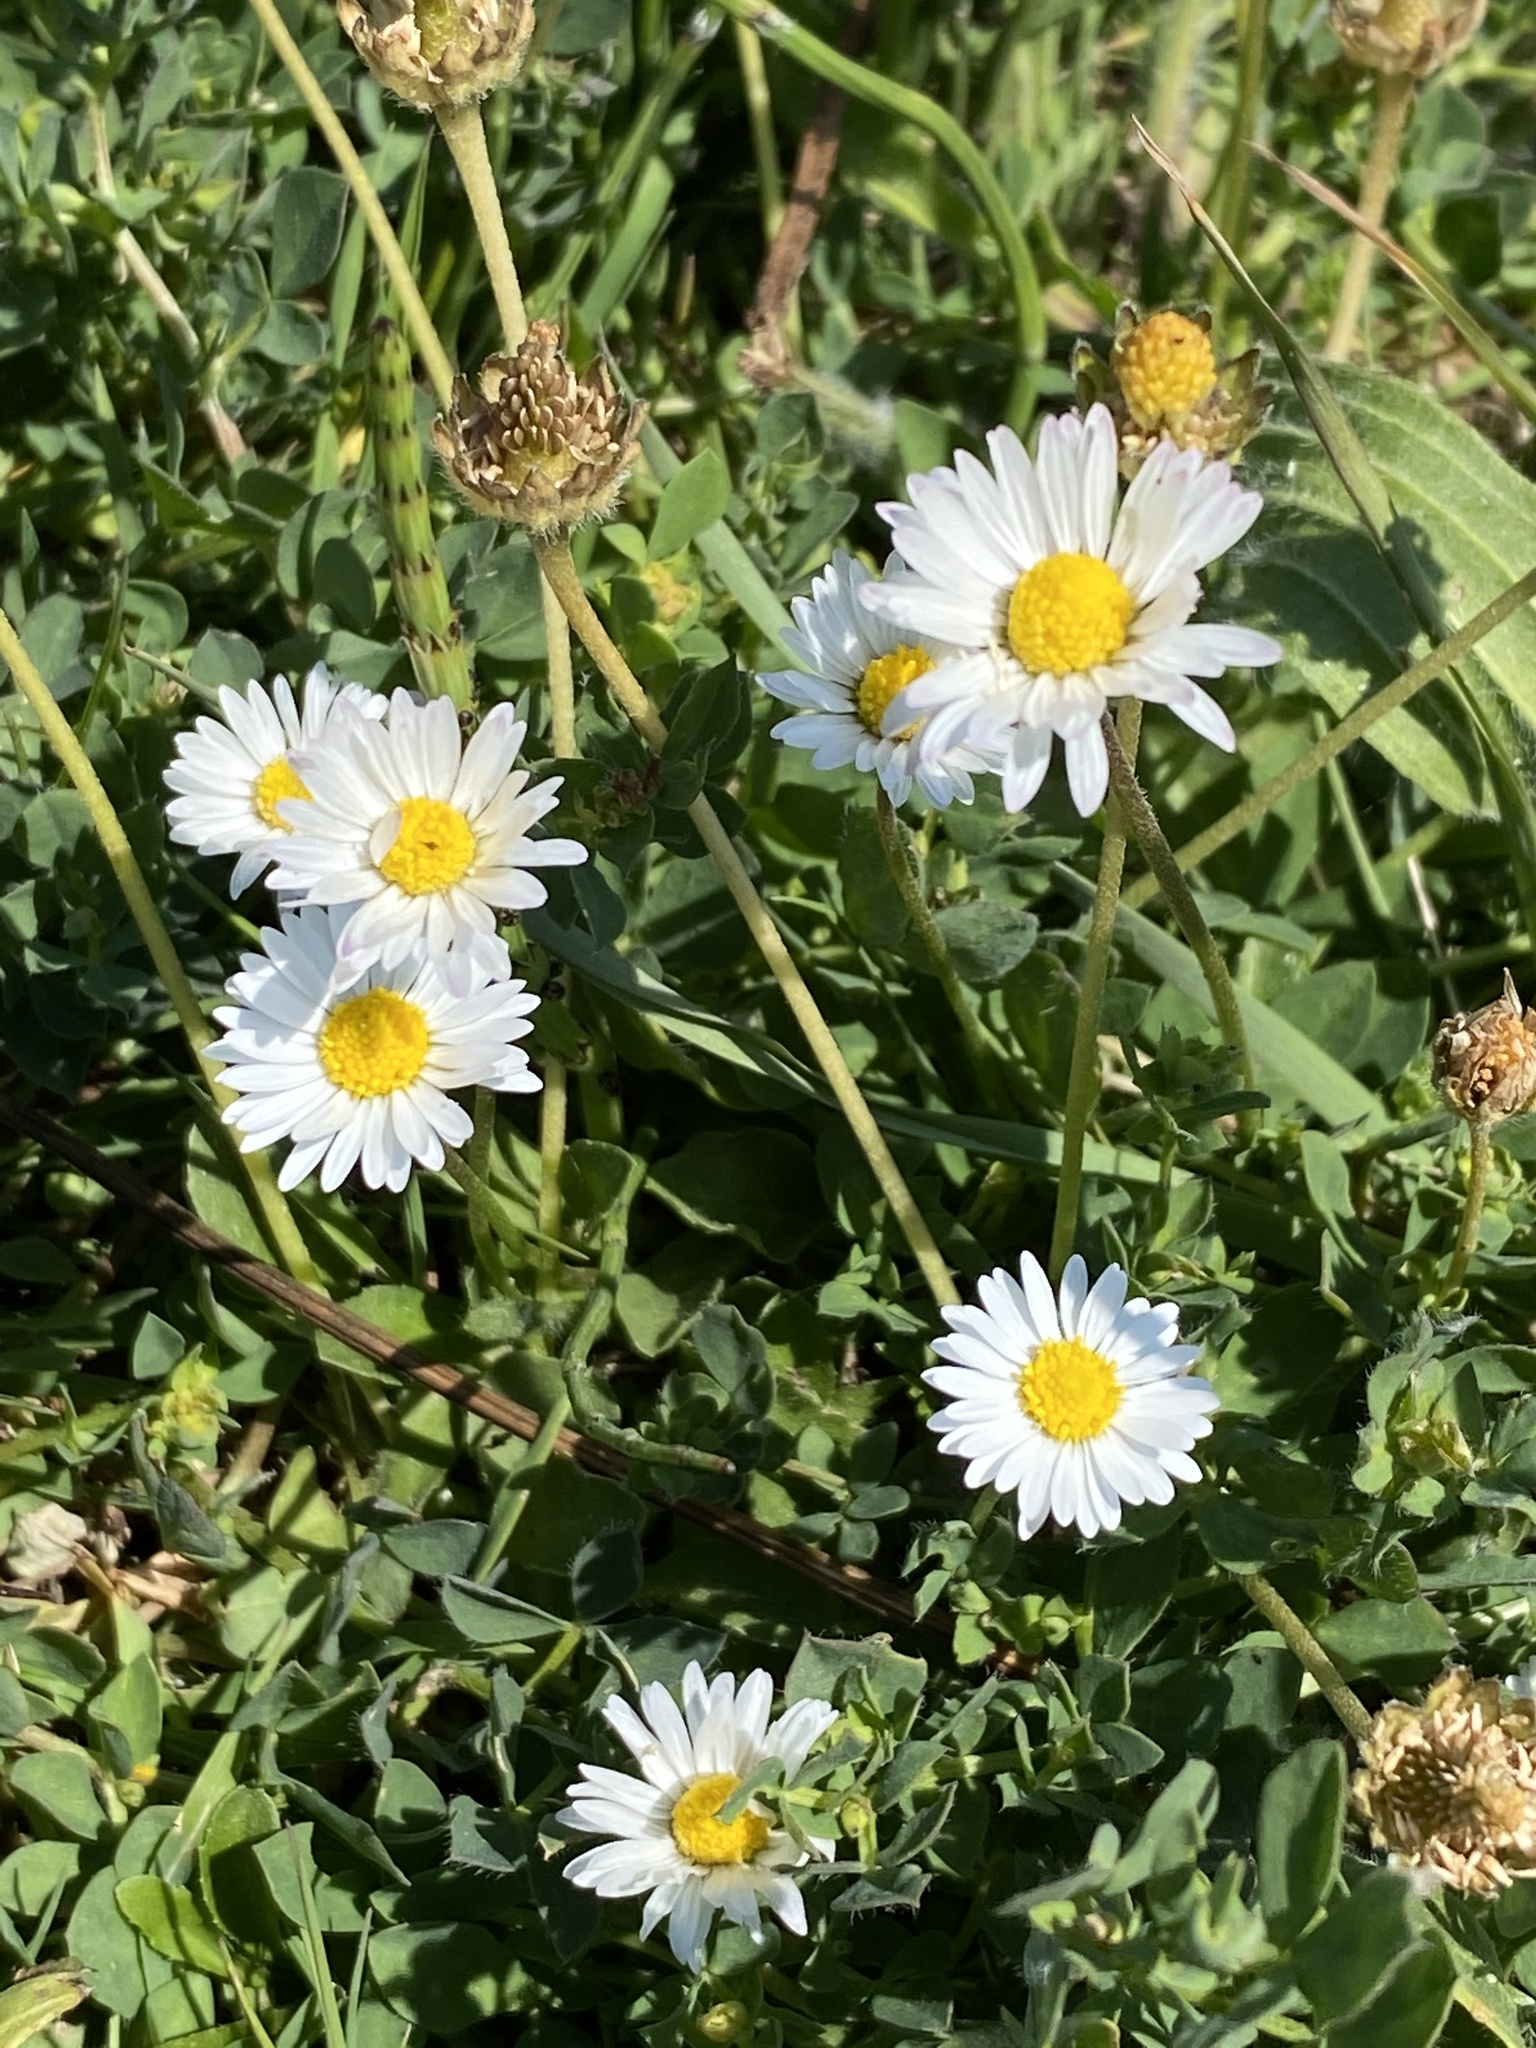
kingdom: Plantae
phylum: Tracheophyta
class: Magnoliopsida
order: Asterales
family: Asteraceae
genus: Bellis
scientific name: Bellis perennis
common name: Lawndaisy
